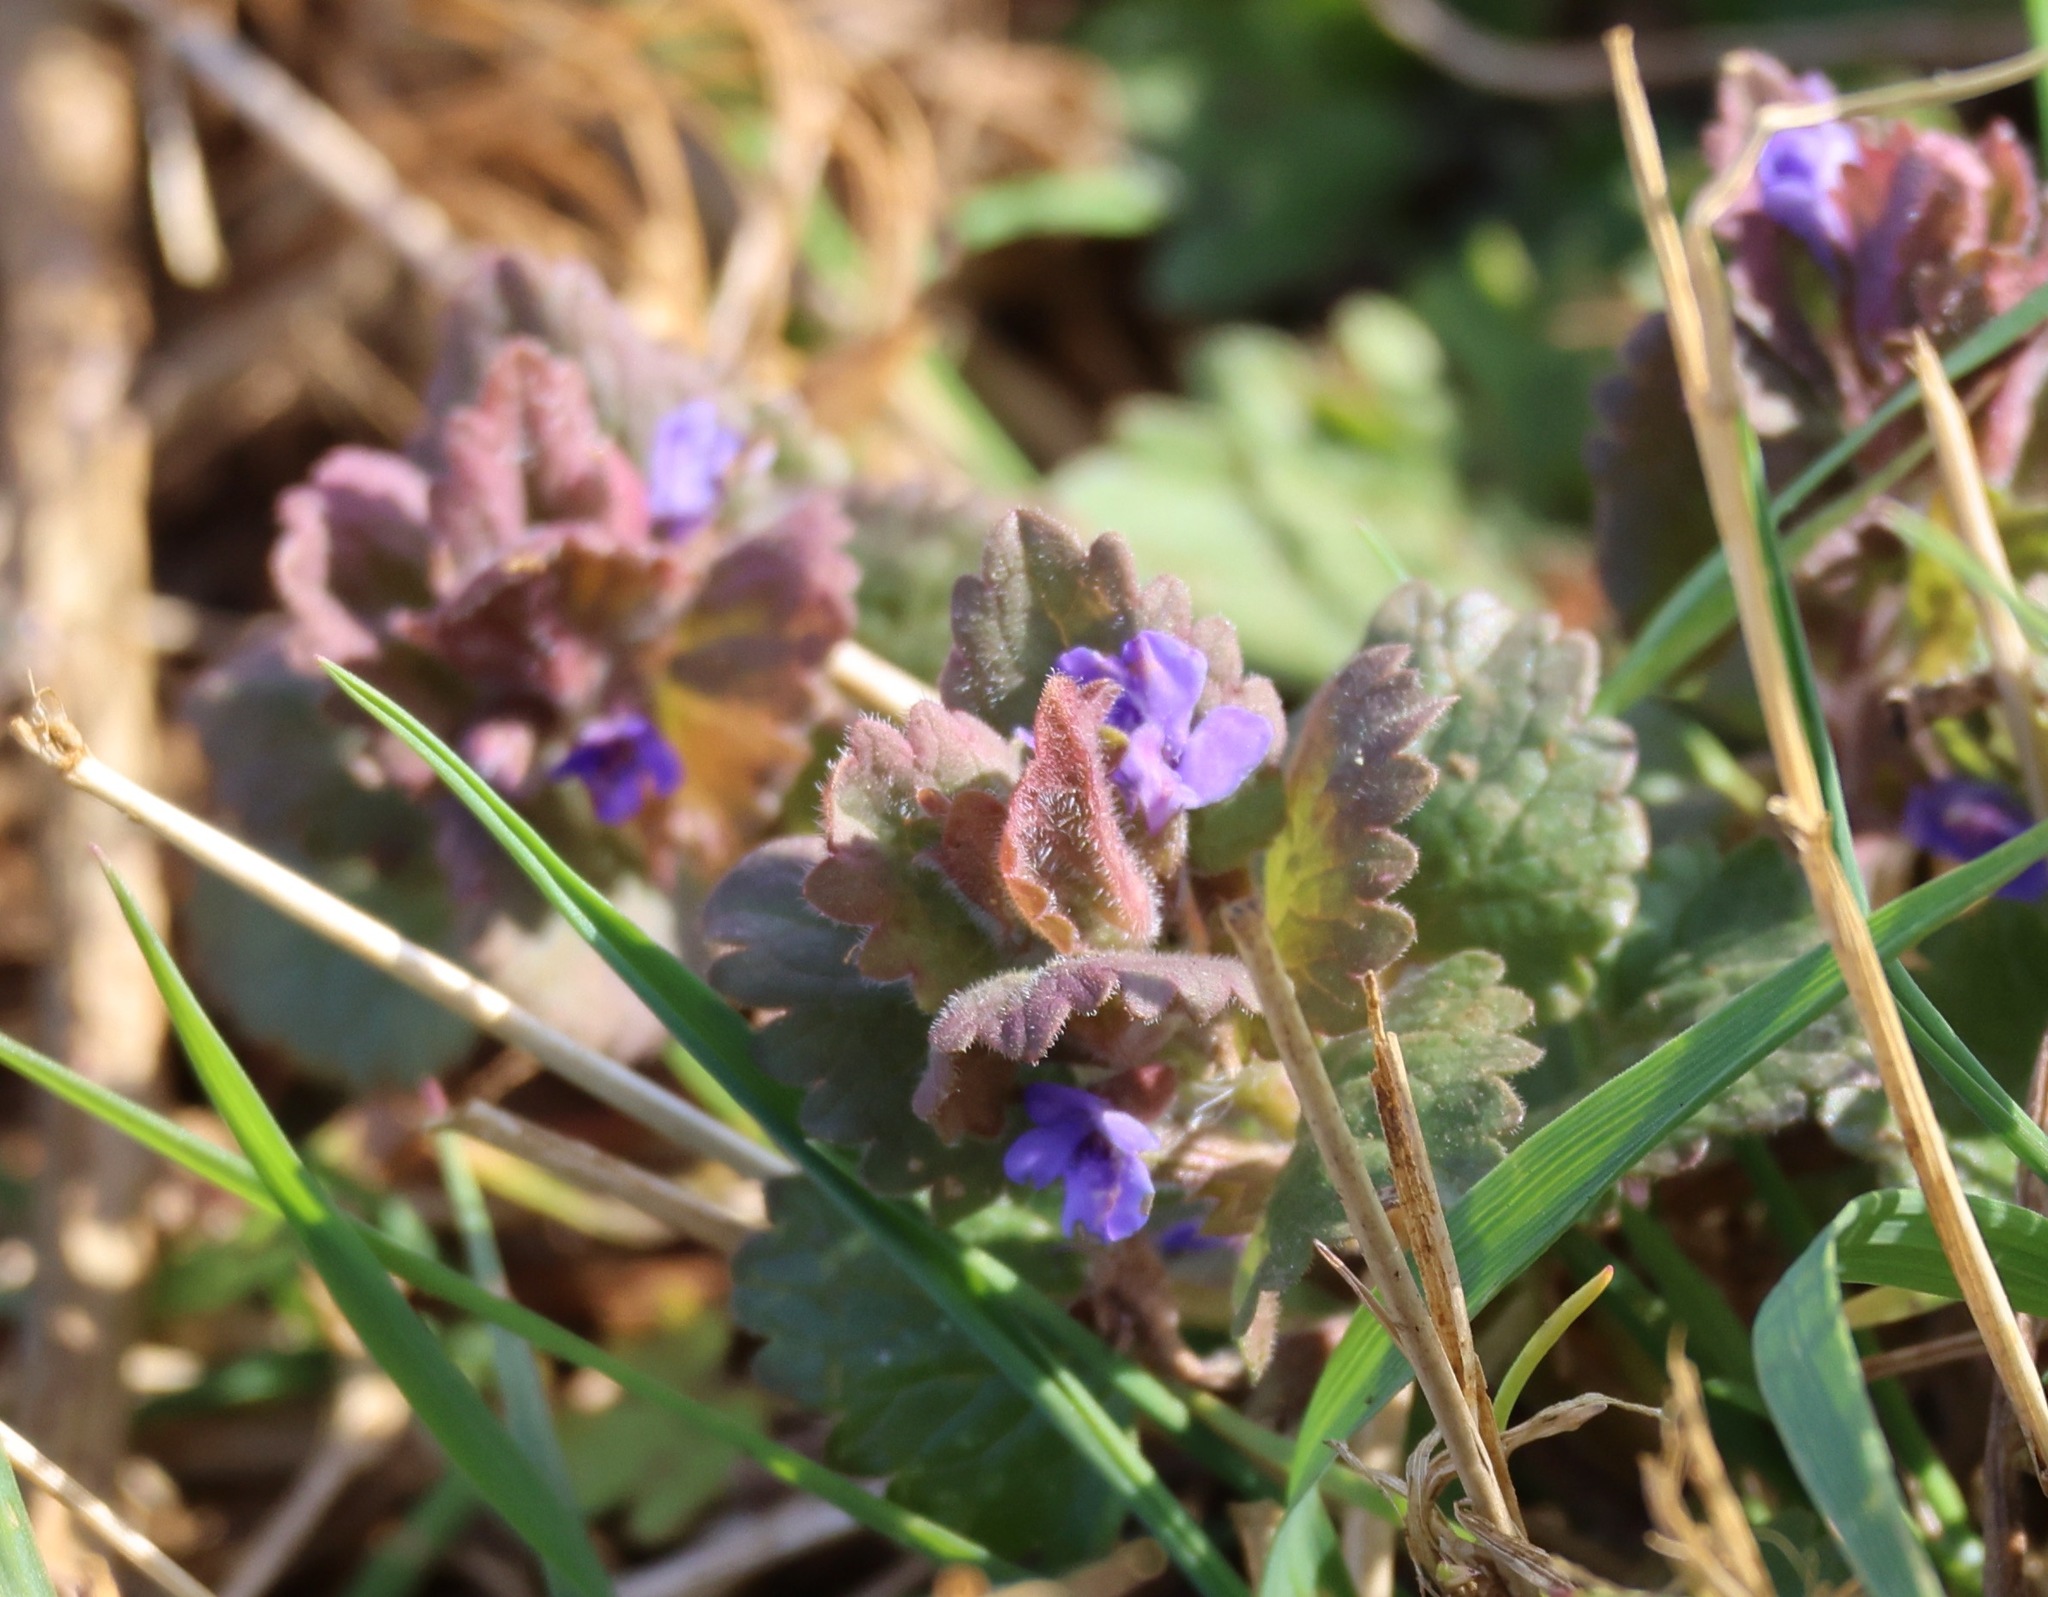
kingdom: Plantae
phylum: Tracheophyta
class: Magnoliopsida
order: Lamiales
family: Lamiaceae
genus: Glechoma
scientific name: Glechoma hederacea
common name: Ground ivy
